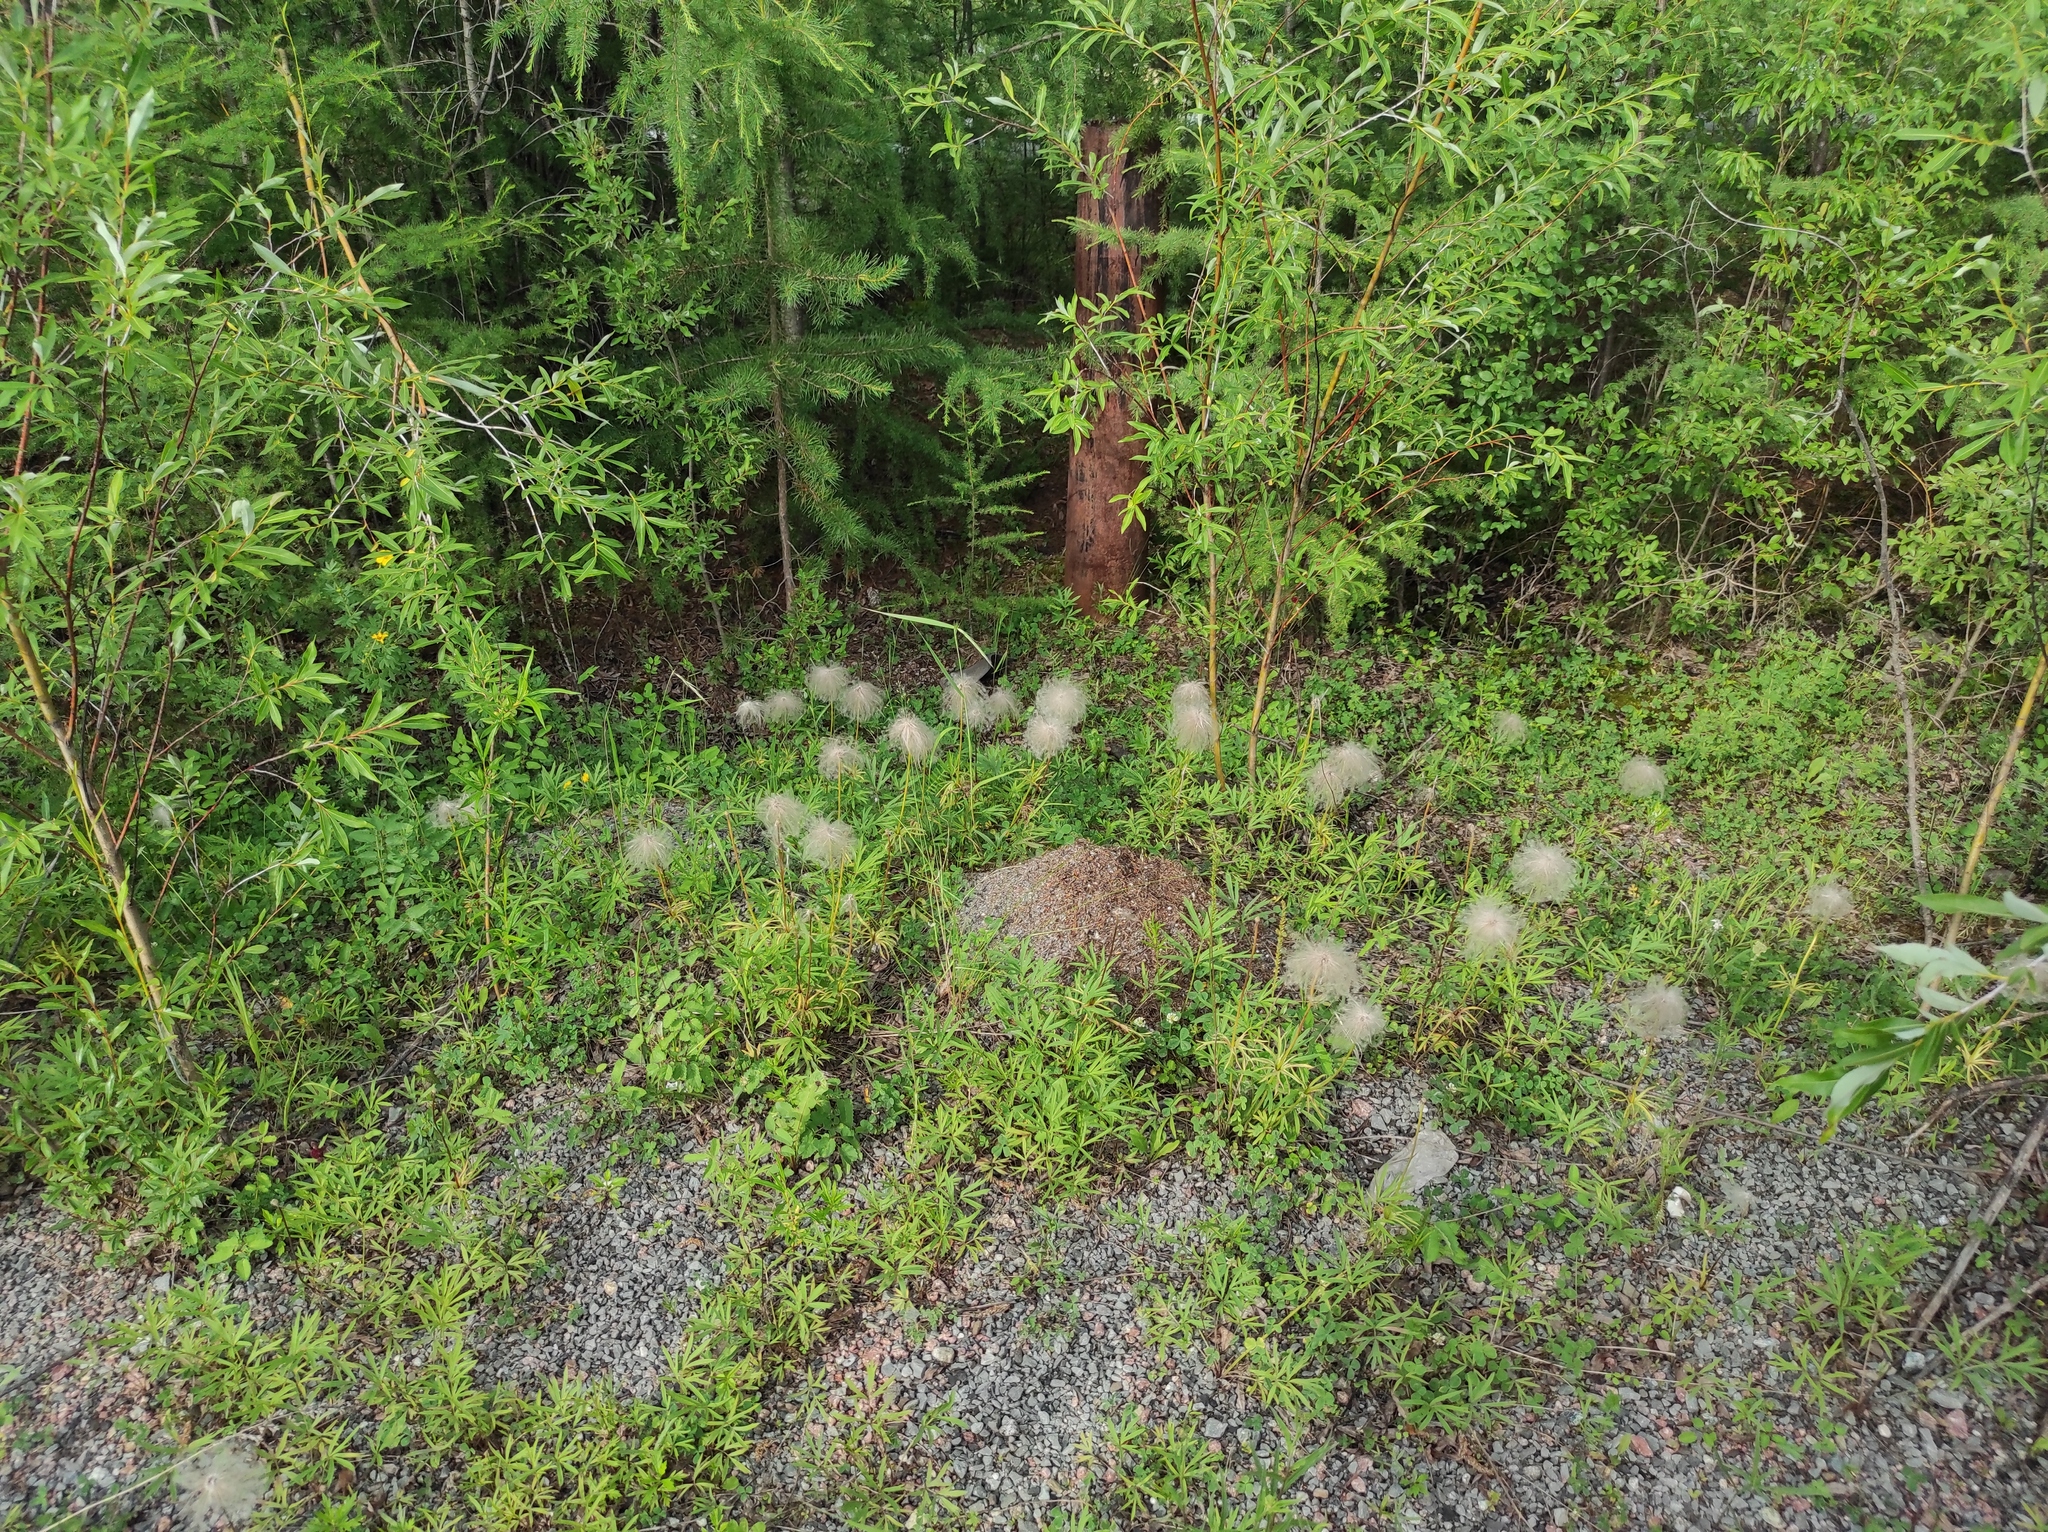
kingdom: Plantae
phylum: Tracheophyta
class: Magnoliopsida
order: Malpighiales
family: Salicaceae
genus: Salix
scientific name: Salix rorida
